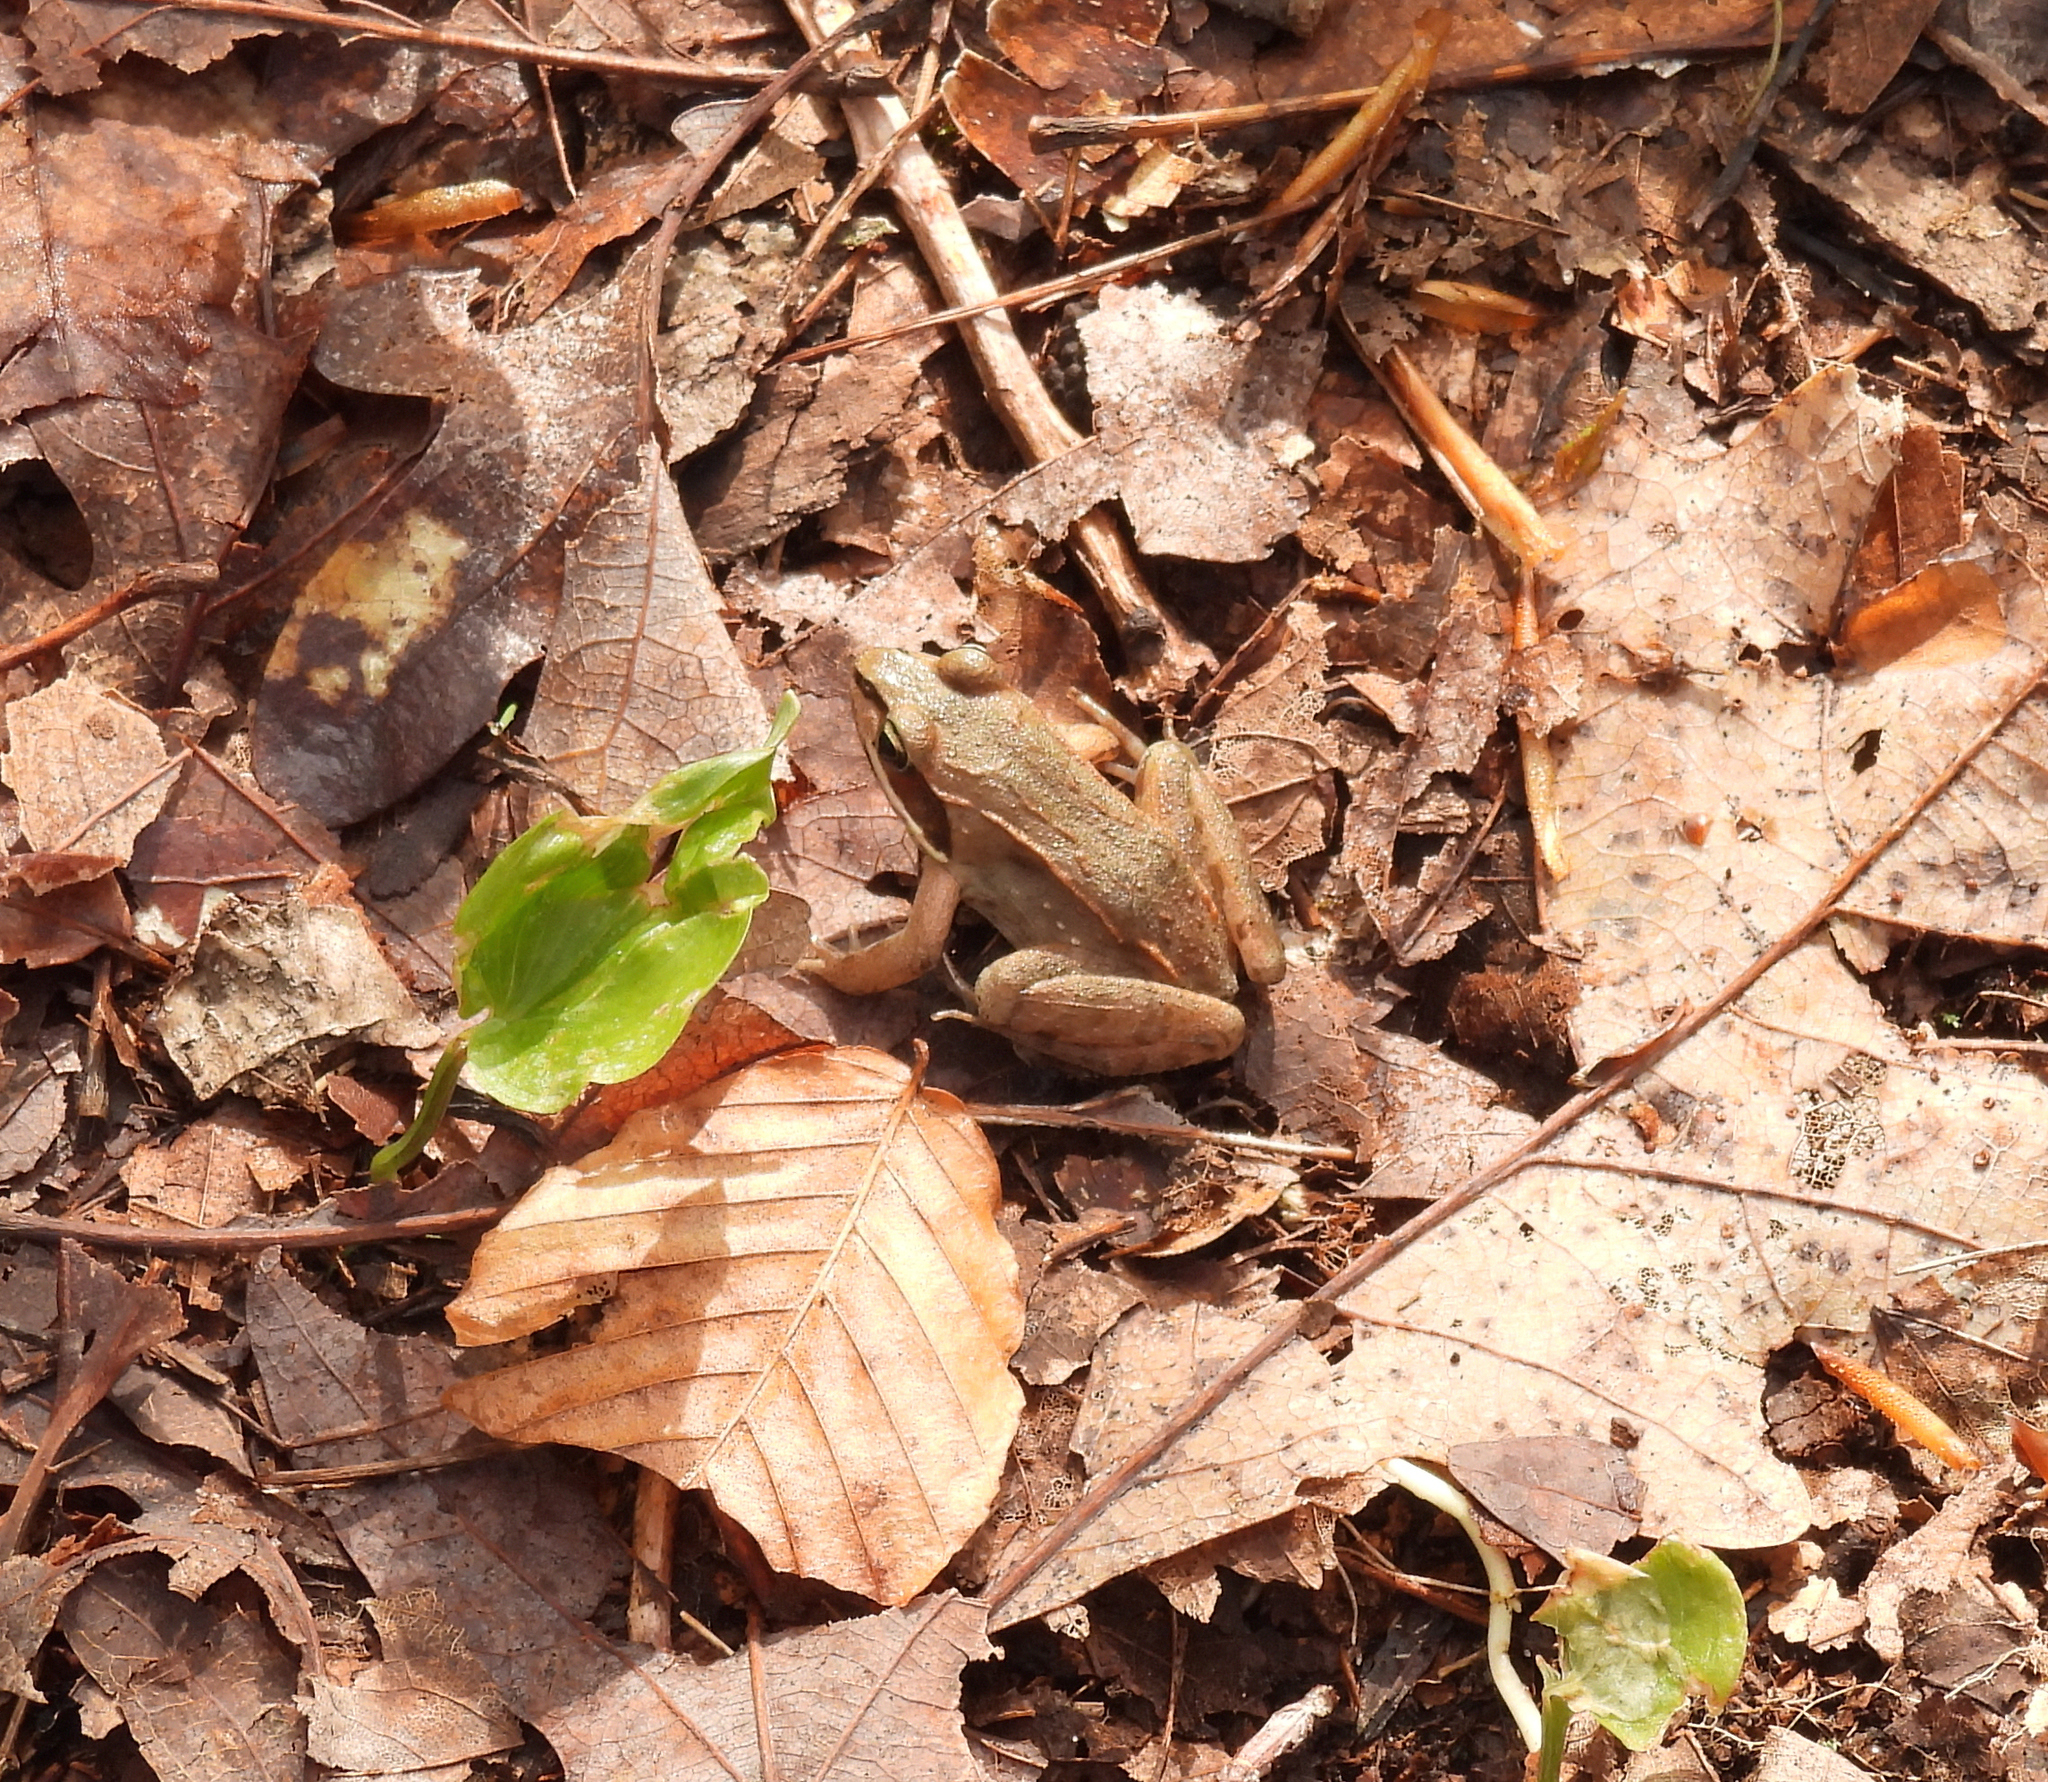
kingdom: Animalia
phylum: Chordata
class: Amphibia
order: Anura
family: Ranidae
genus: Lithobates
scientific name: Lithobates sylvaticus
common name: Wood frog
